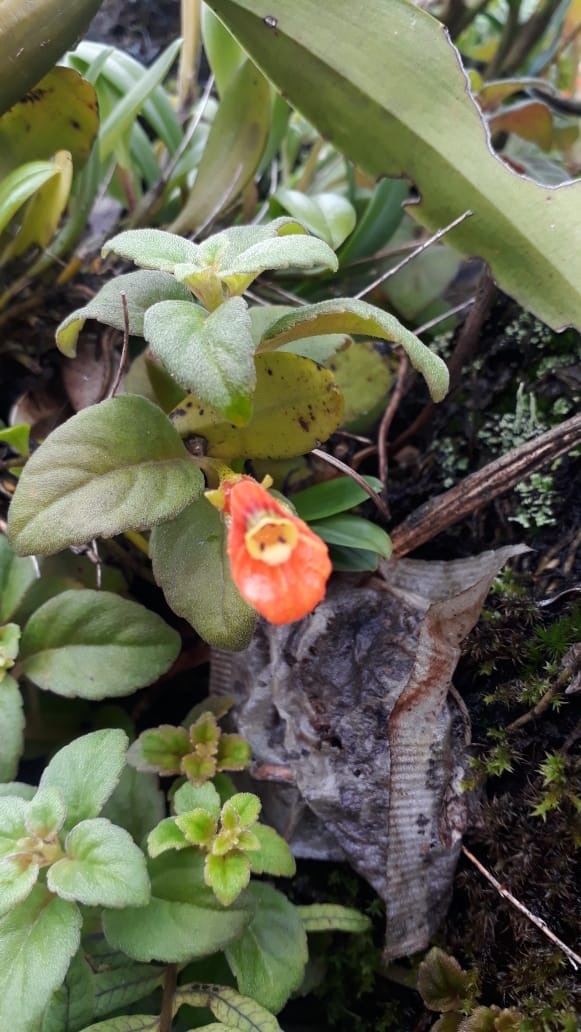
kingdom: Plantae
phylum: Tracheophyta
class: Magnoliopsida
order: Lamiales
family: Gesneriaceae
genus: Pachycaulos
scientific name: Pachycaulos nummularia
